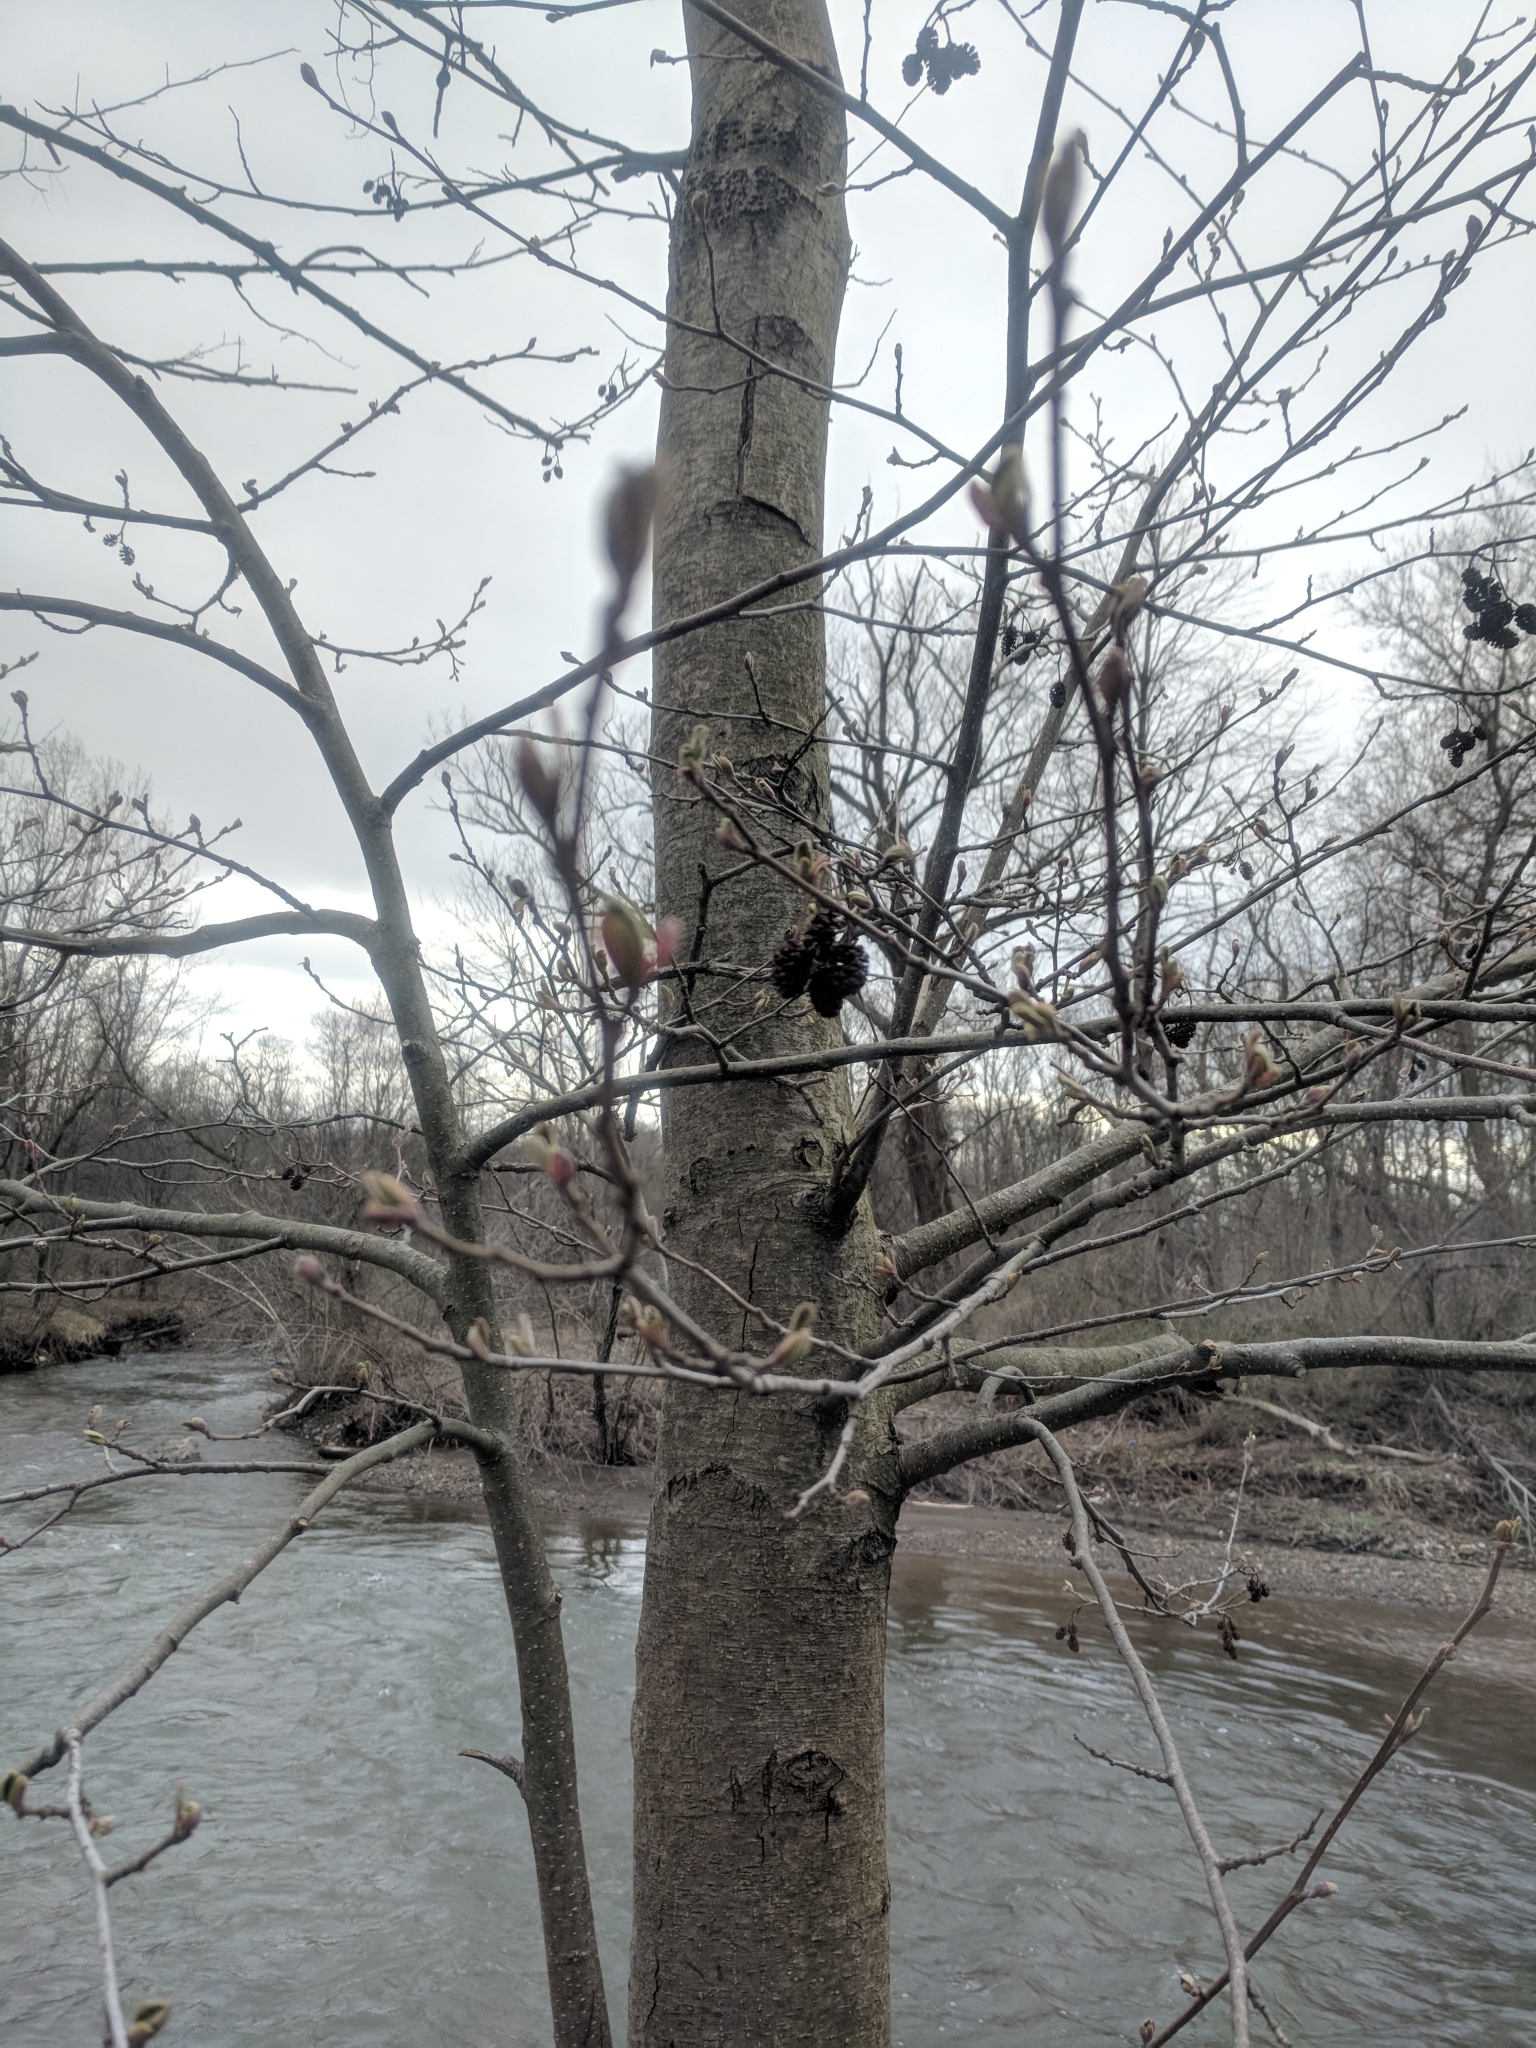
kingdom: Plantae
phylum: Tracheophyta
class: Magnoliopsida
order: Fagales
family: Betulaceae
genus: Alnus
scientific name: Alnus glutinosa
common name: Black alder
